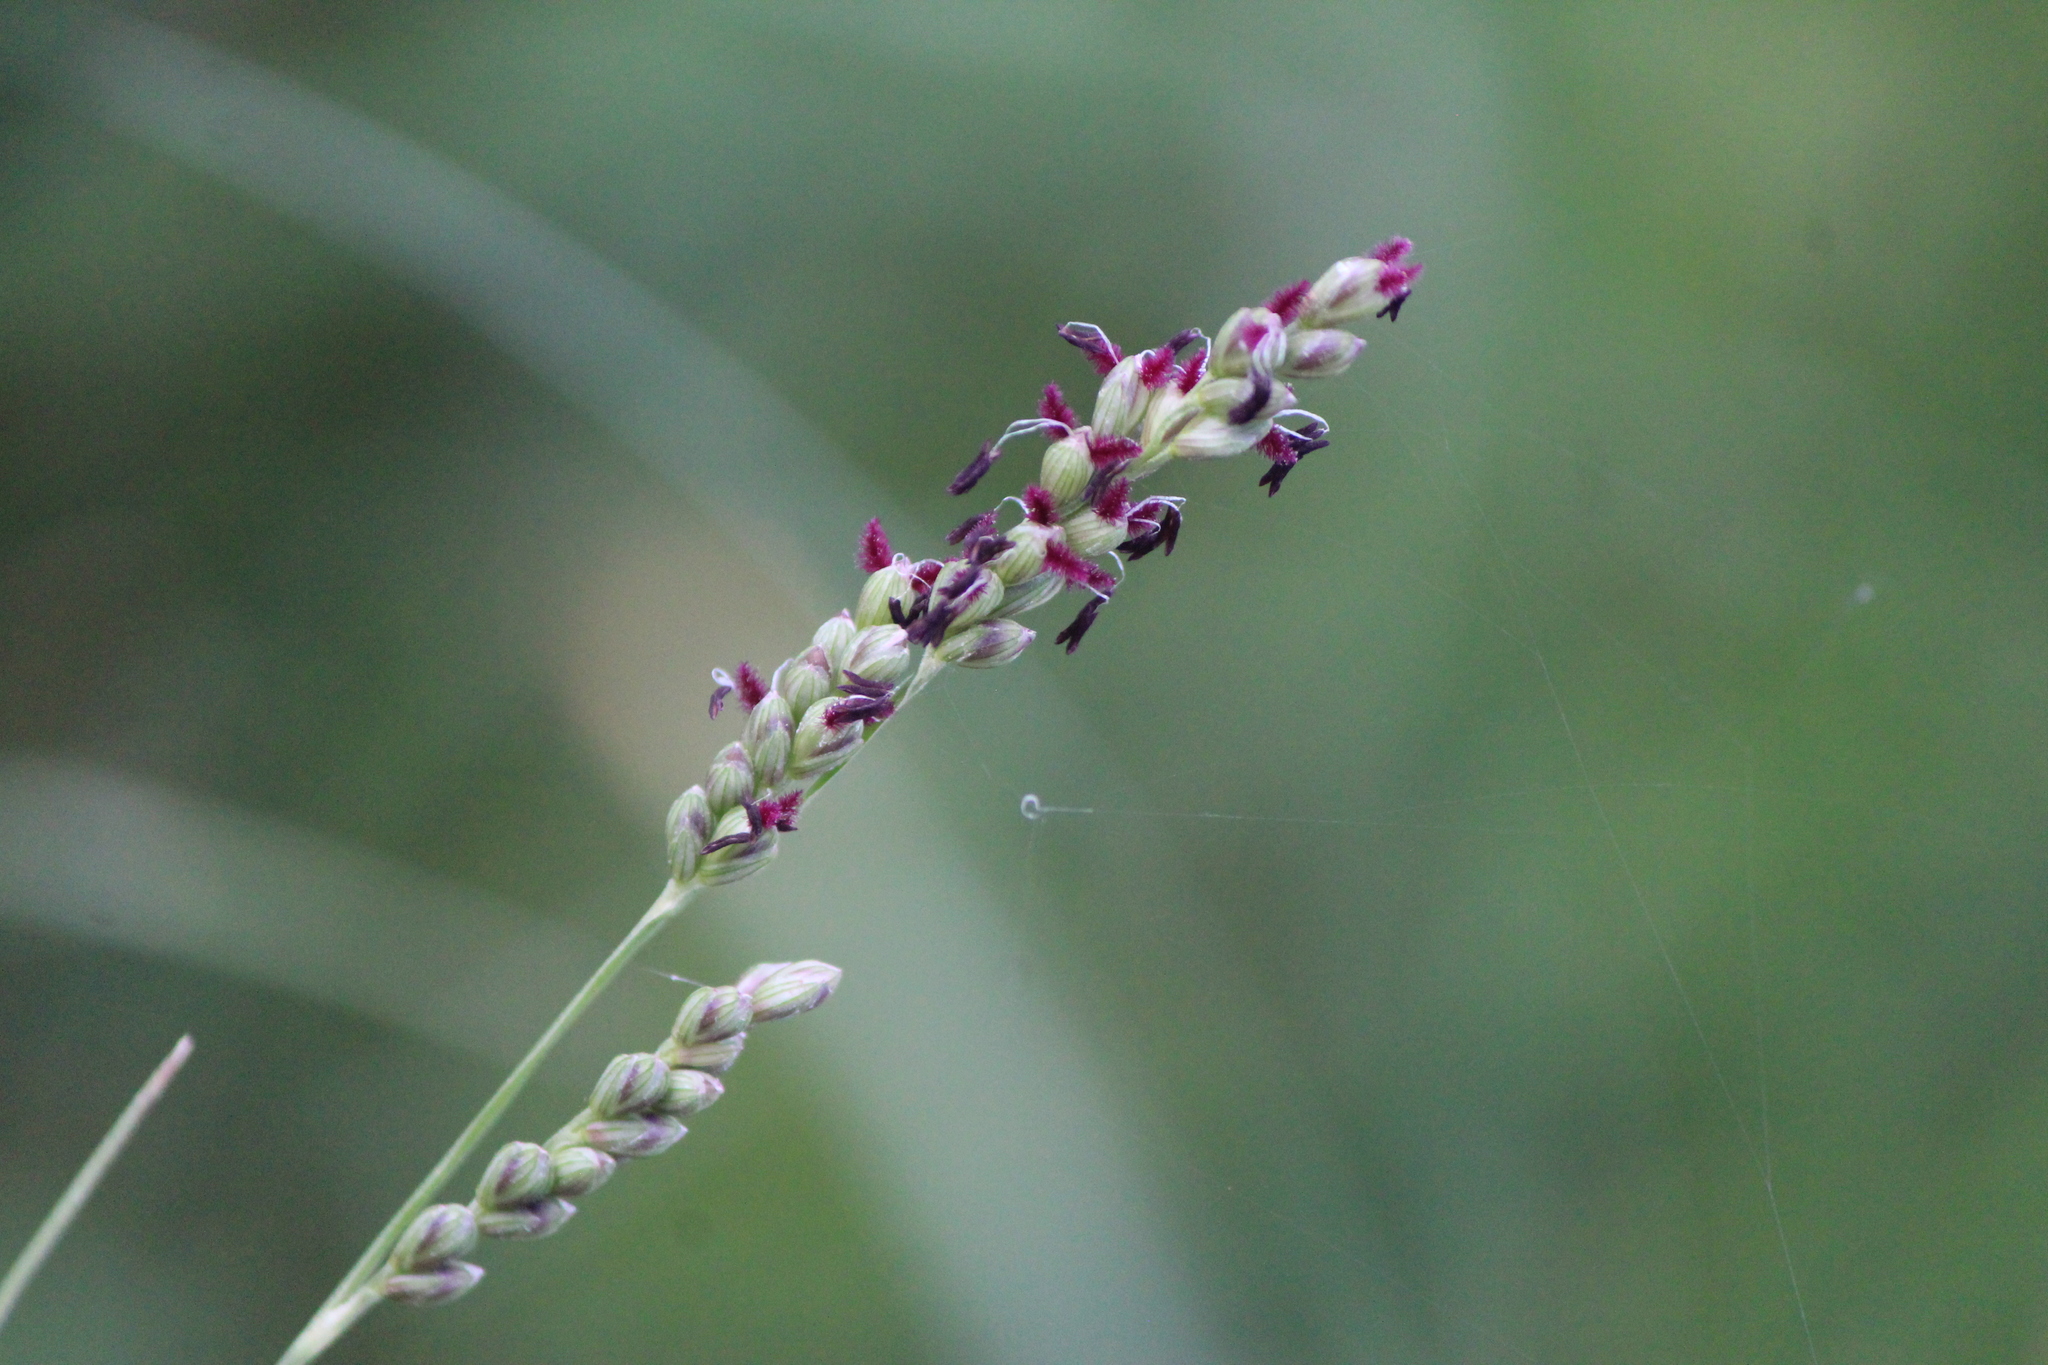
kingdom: Plantae
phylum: Tracheophyta
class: Liliopsida
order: Poales
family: Poaceae
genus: Hopia
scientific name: Hopia obtusa
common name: Vine-mesquite
